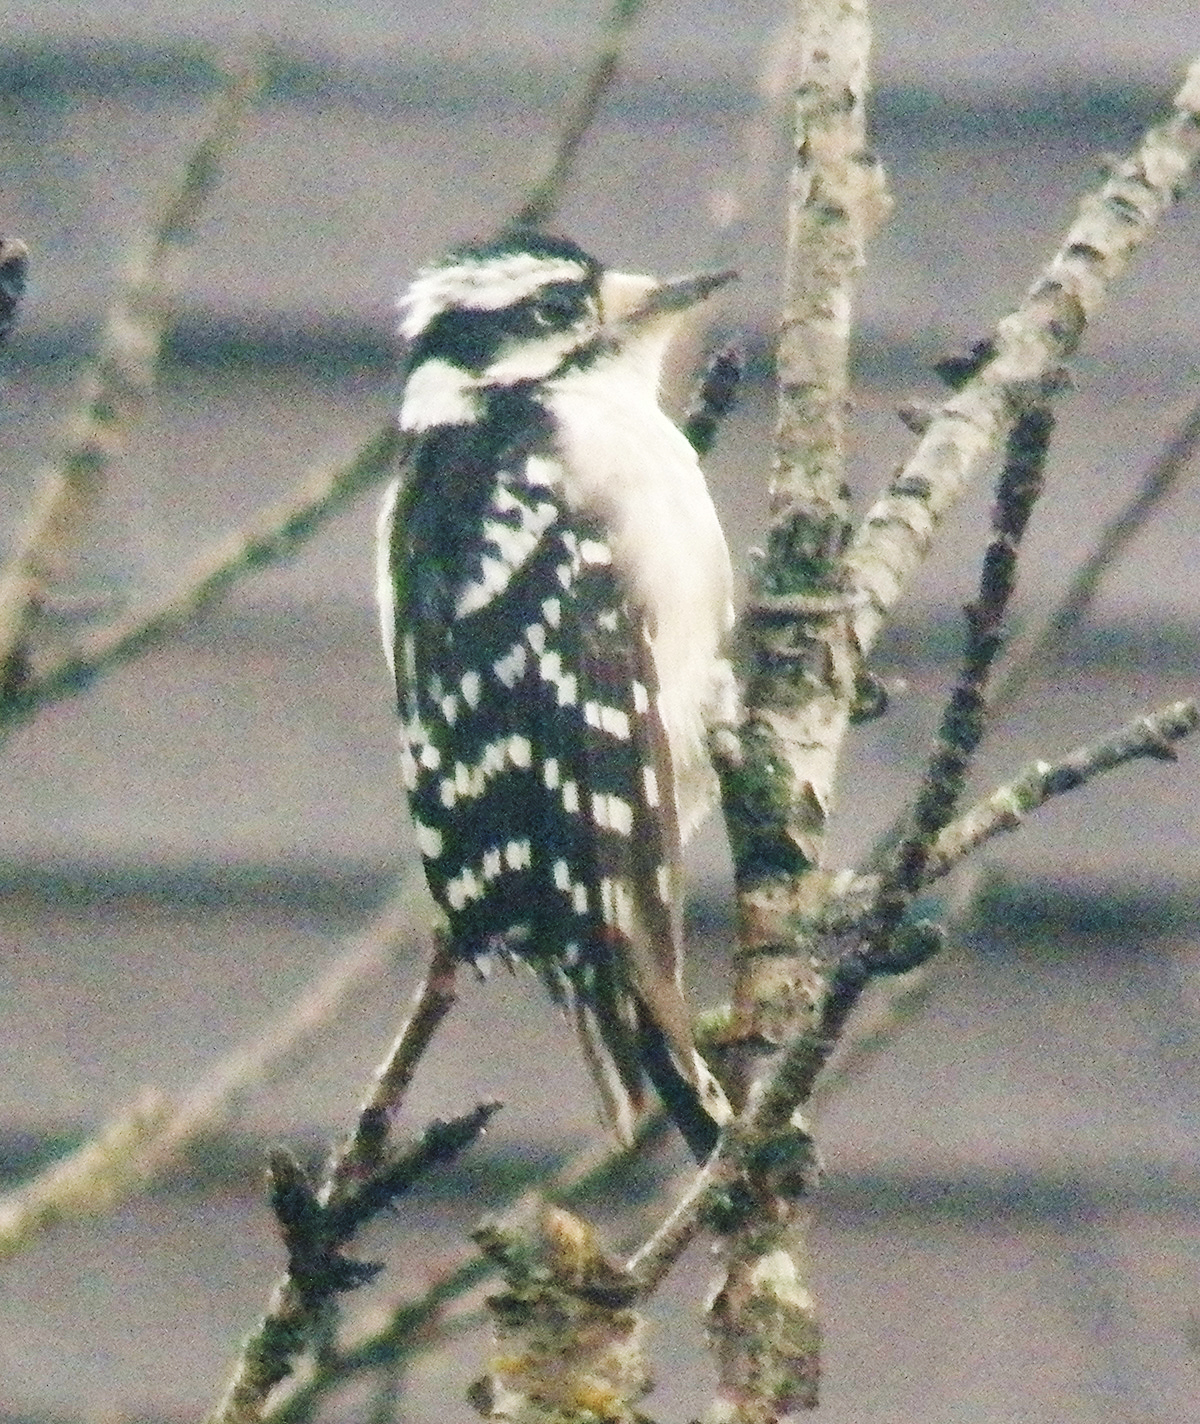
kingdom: Animalia
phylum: Chordata
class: Aves
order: Piciformes
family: Picidae
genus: Dryobates
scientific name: Dryobates pubescens
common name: Downy woodpecker
